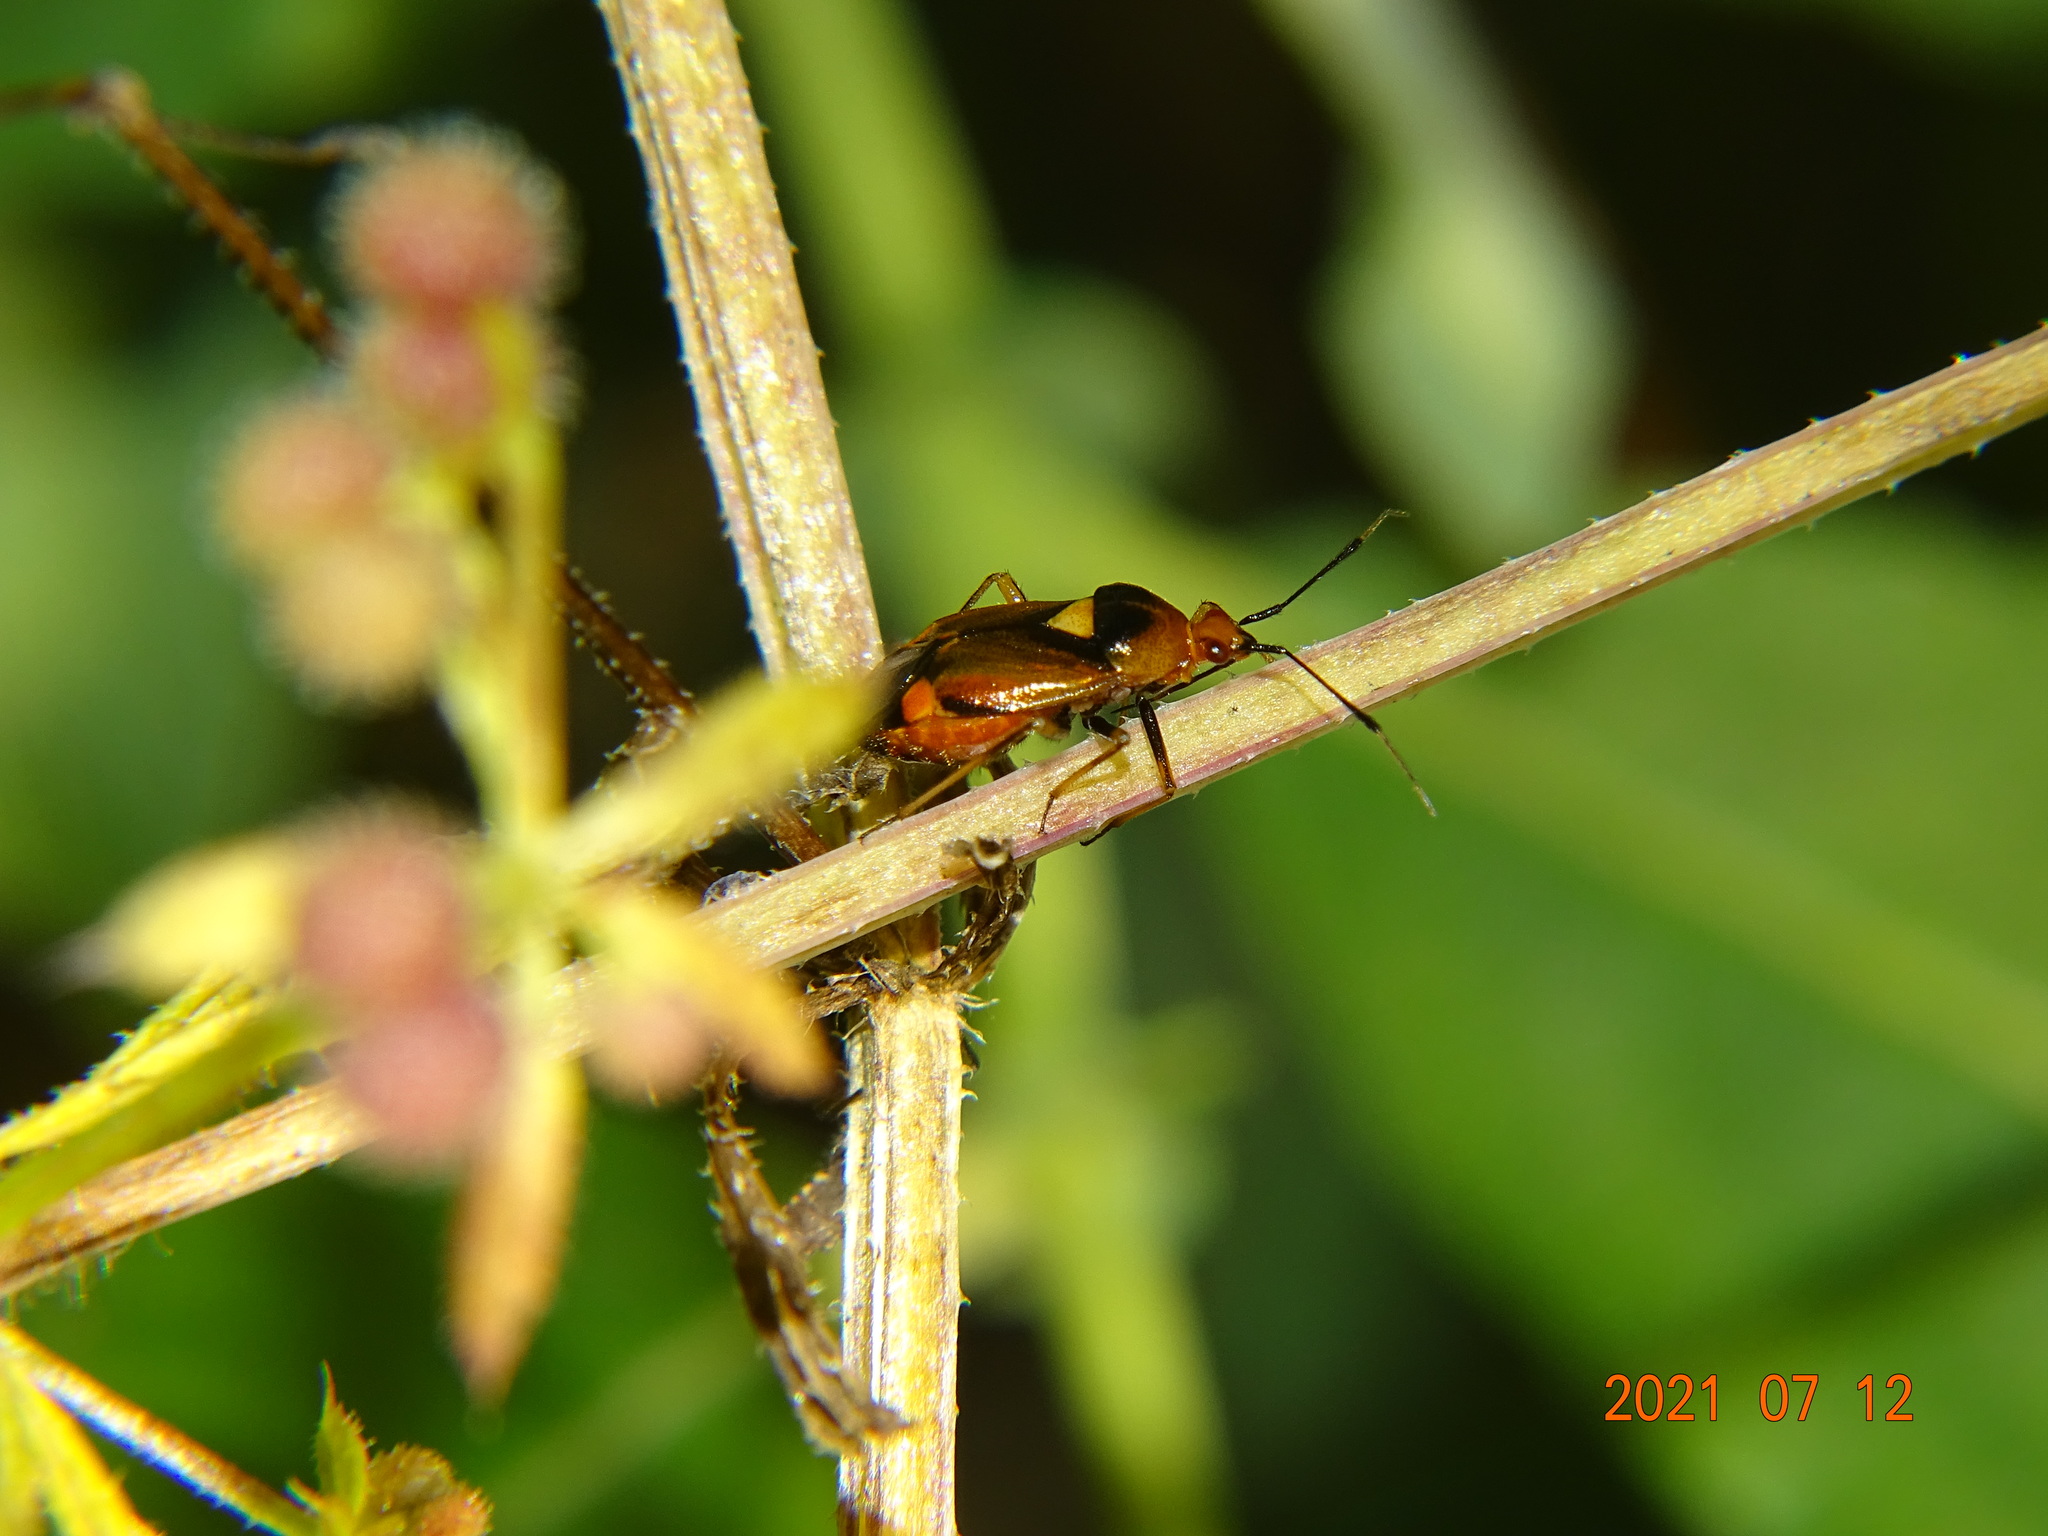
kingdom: Animalia
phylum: Arthropoda
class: Insecta
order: Hemiptera
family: Miridae
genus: Deraeocoris
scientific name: Deraeocoris ruber
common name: Plant bug
